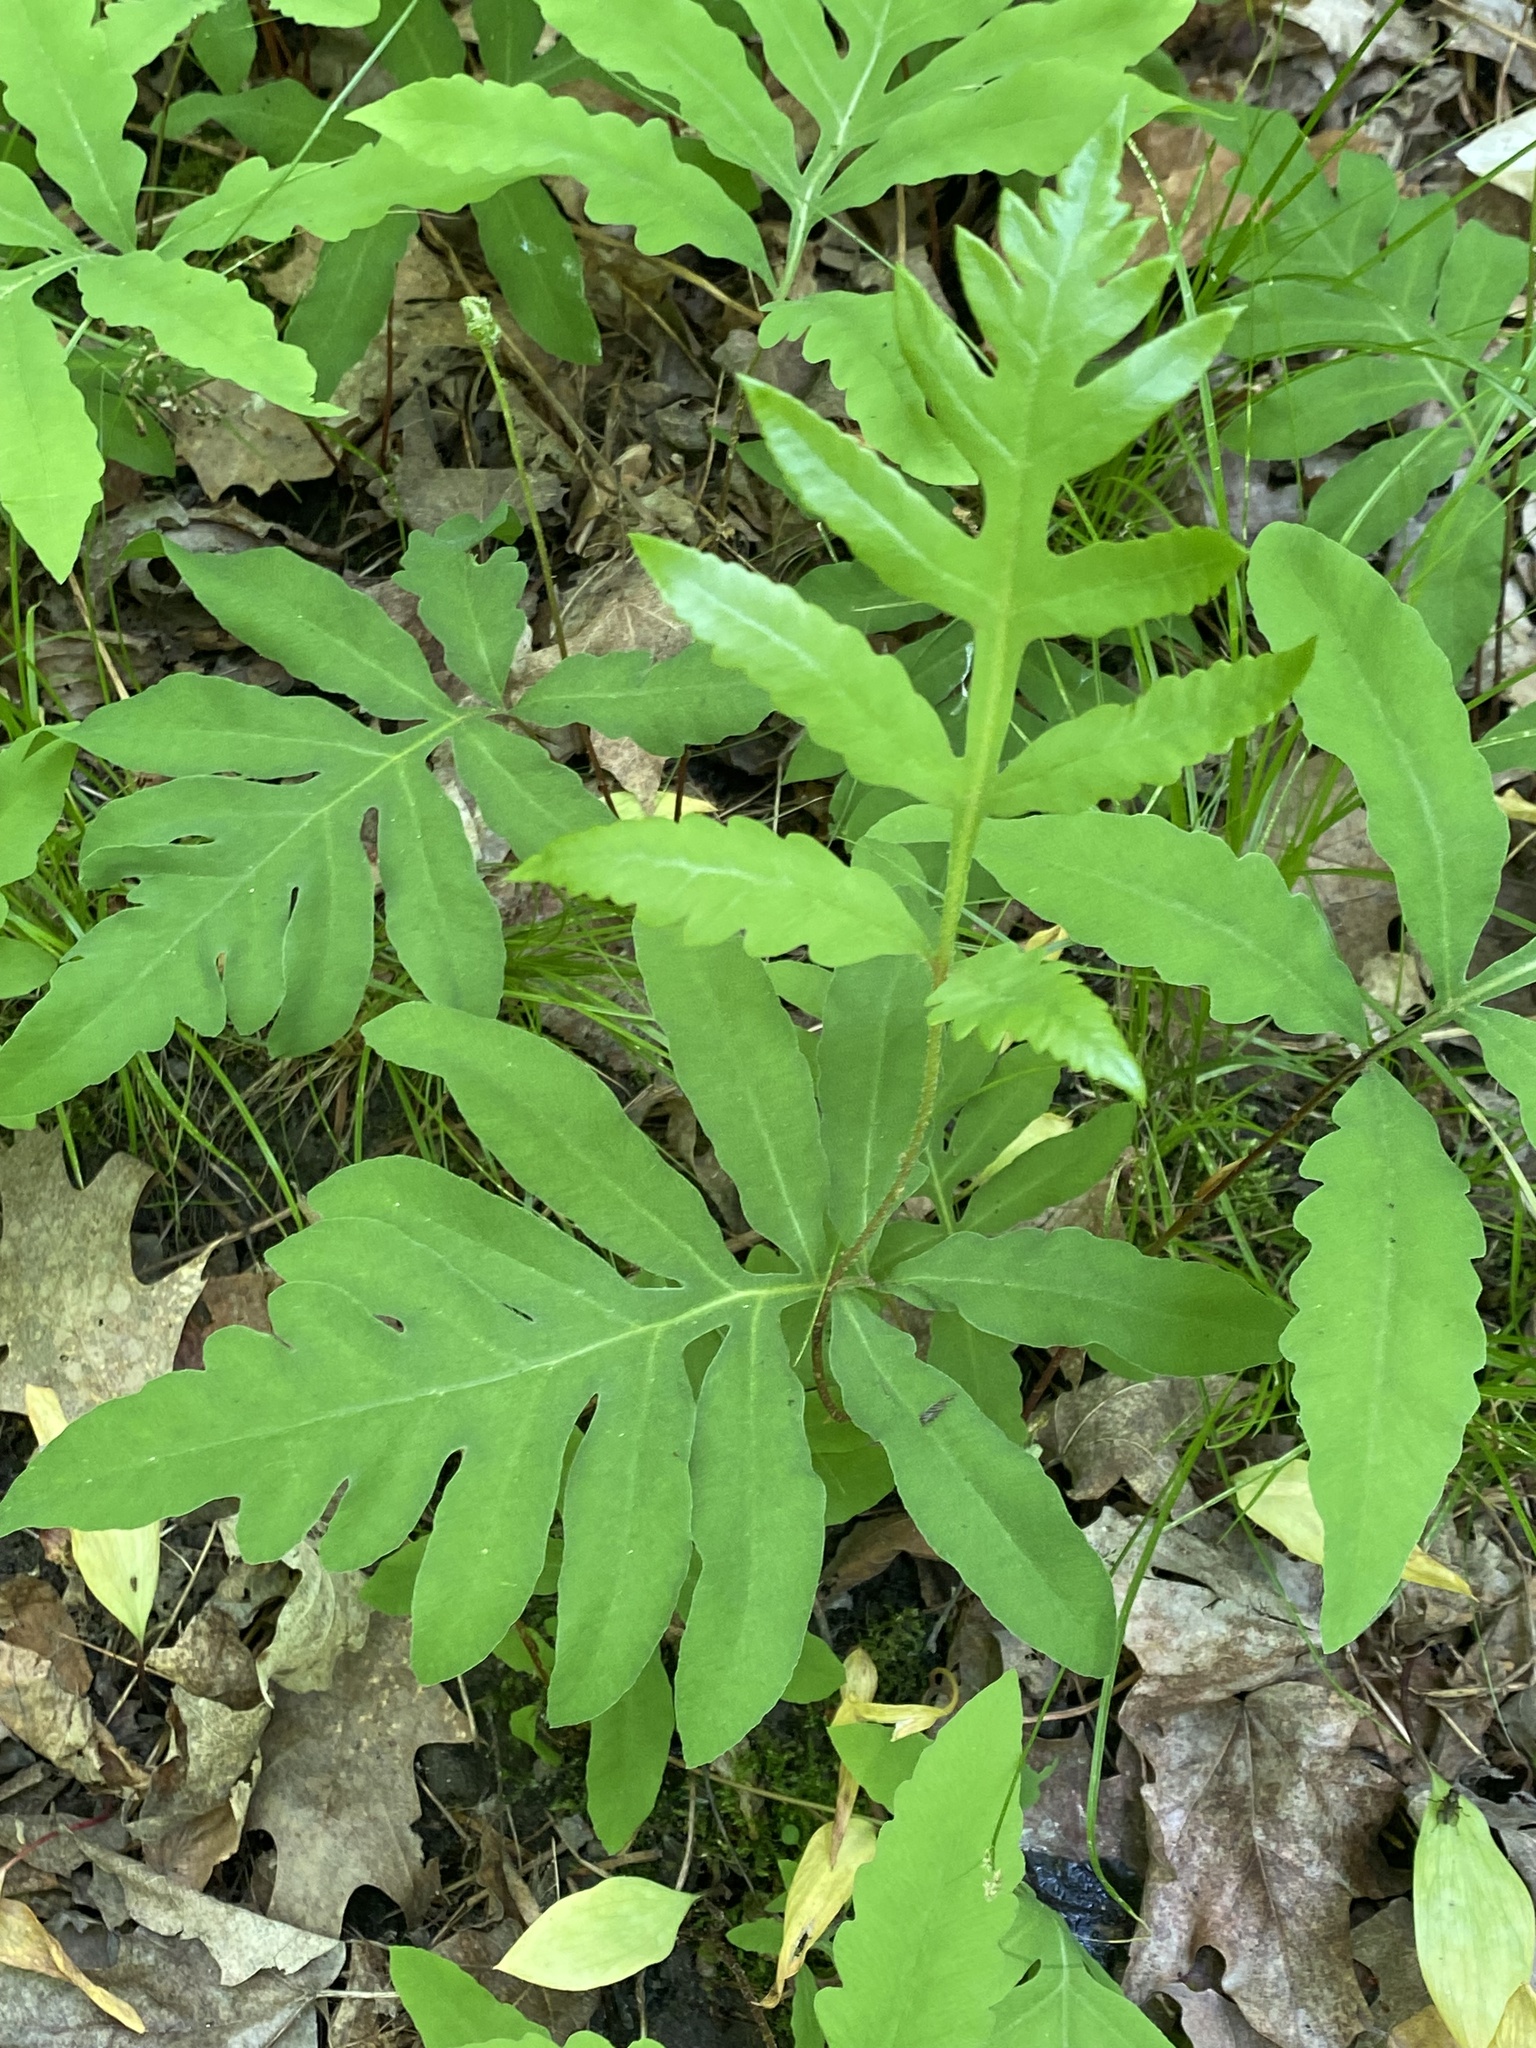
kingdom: Plantae
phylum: Tracheophyta
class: Polypodiopsida
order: Polypodiales
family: Onocleaceae
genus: Onoclea
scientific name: Onoclea sensibilis
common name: Sensitive fern
